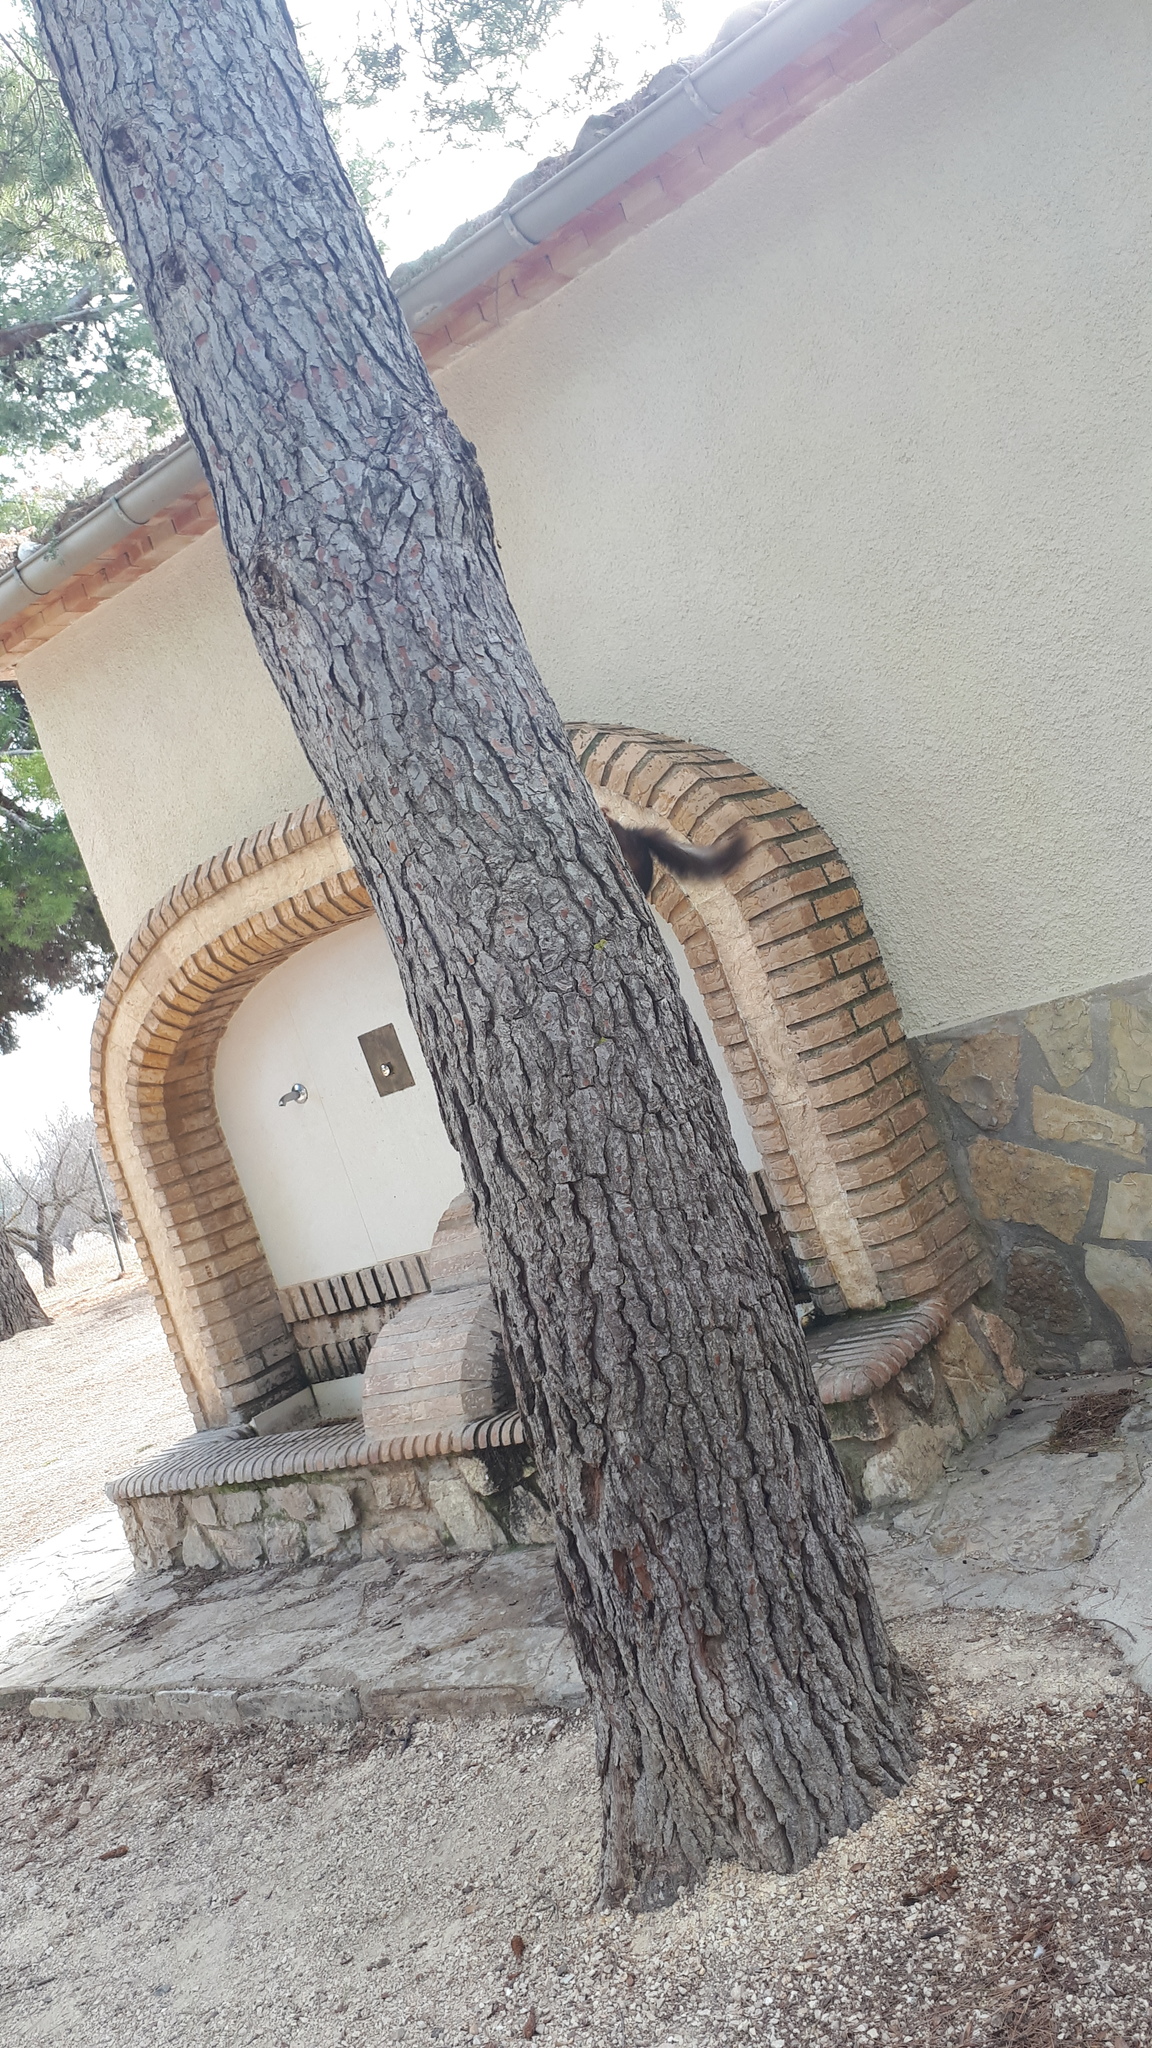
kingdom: Animalia
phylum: Chordata
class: Mammalia
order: Rodentia
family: Sciuridae
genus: Sciurus
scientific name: Sciurus vulgaris
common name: Eurasian red squirrel
